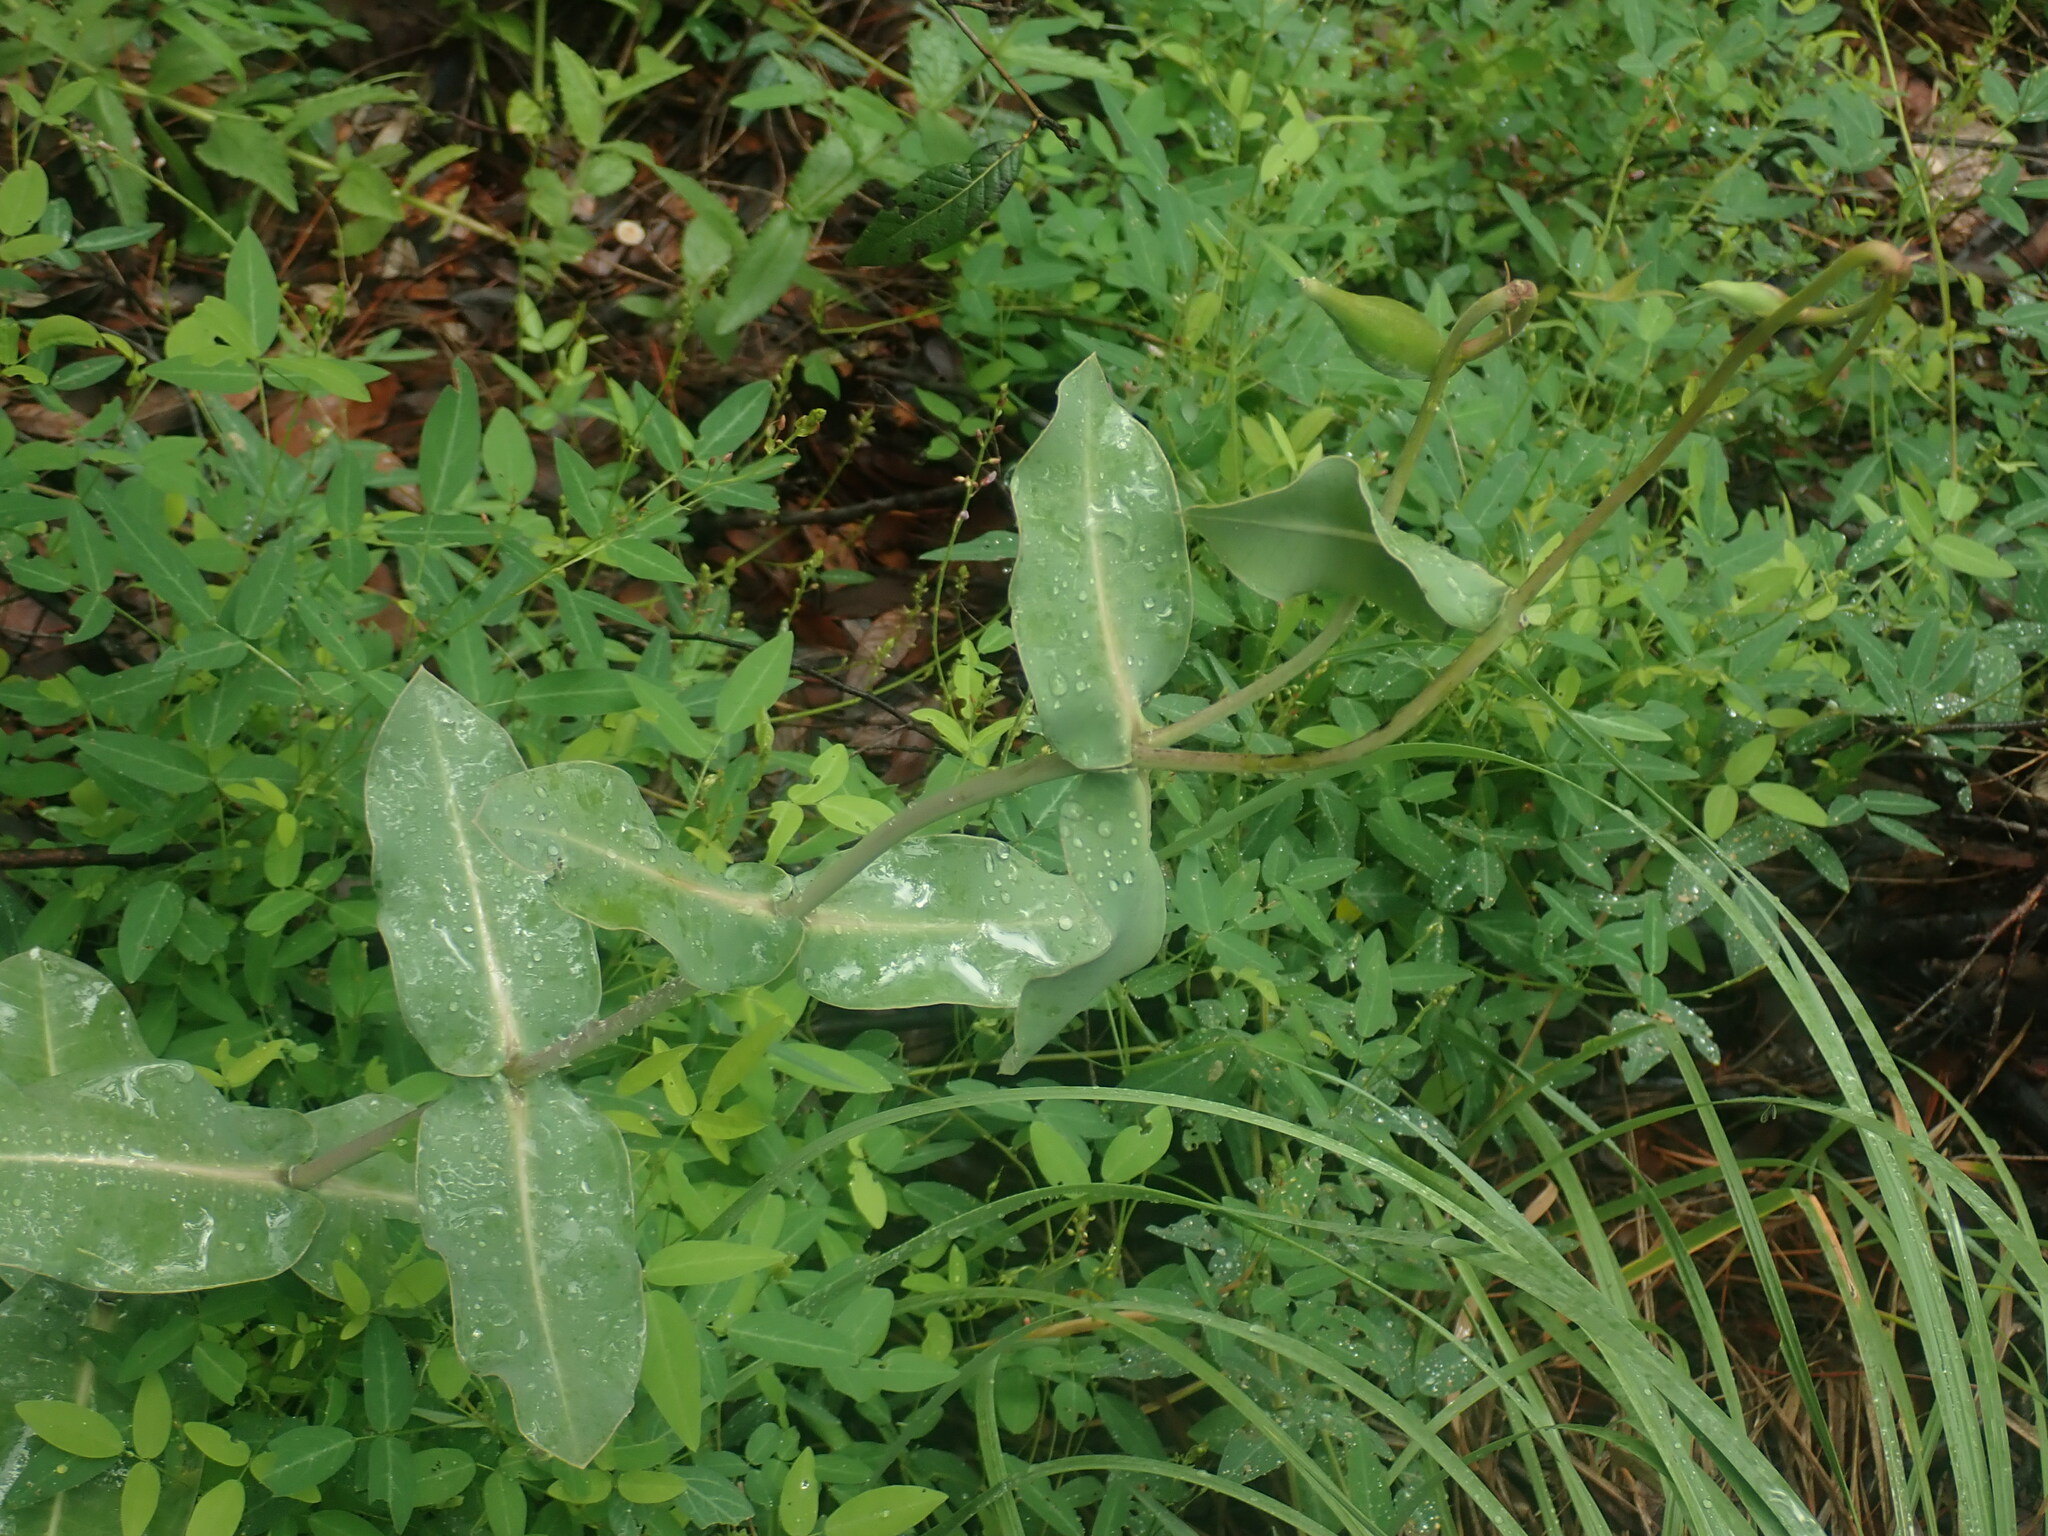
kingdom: Plantae
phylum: Tracheophyta
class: Magnoliopsida
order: Gentianales
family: Apocynaceae
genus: Asclepias
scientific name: Asclepias elata
